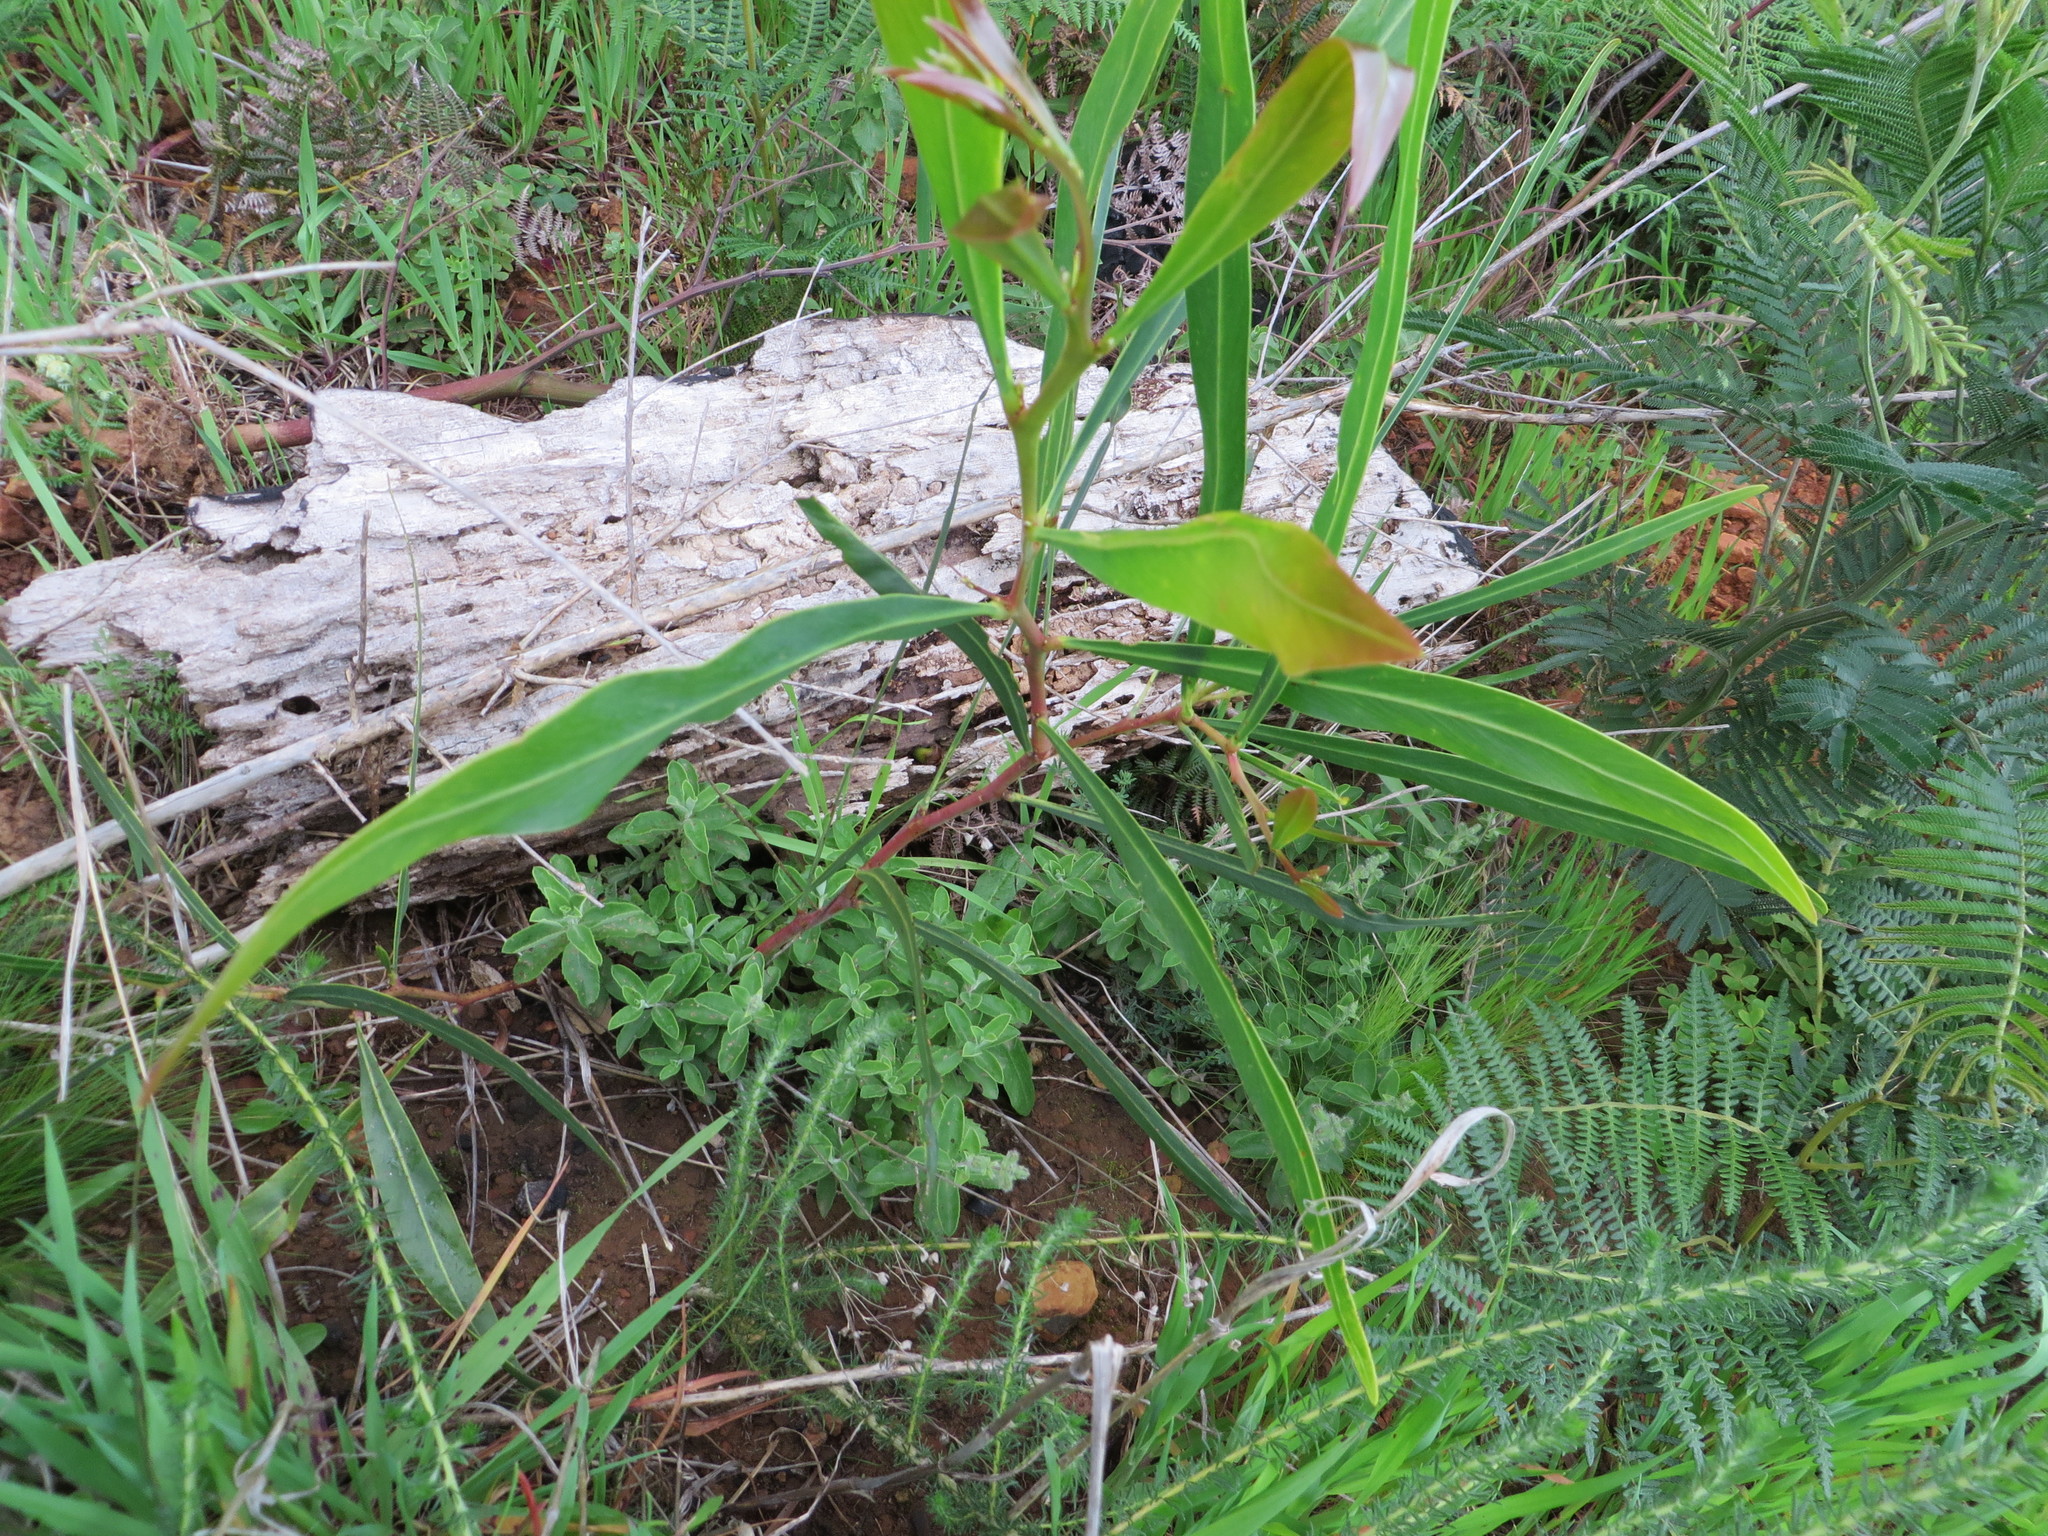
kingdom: Plantae
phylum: Tracheophyta
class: Magnoliopsida
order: Fabales
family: Fabaceae
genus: Acacia
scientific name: Acacia saligna
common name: Orange wattle
